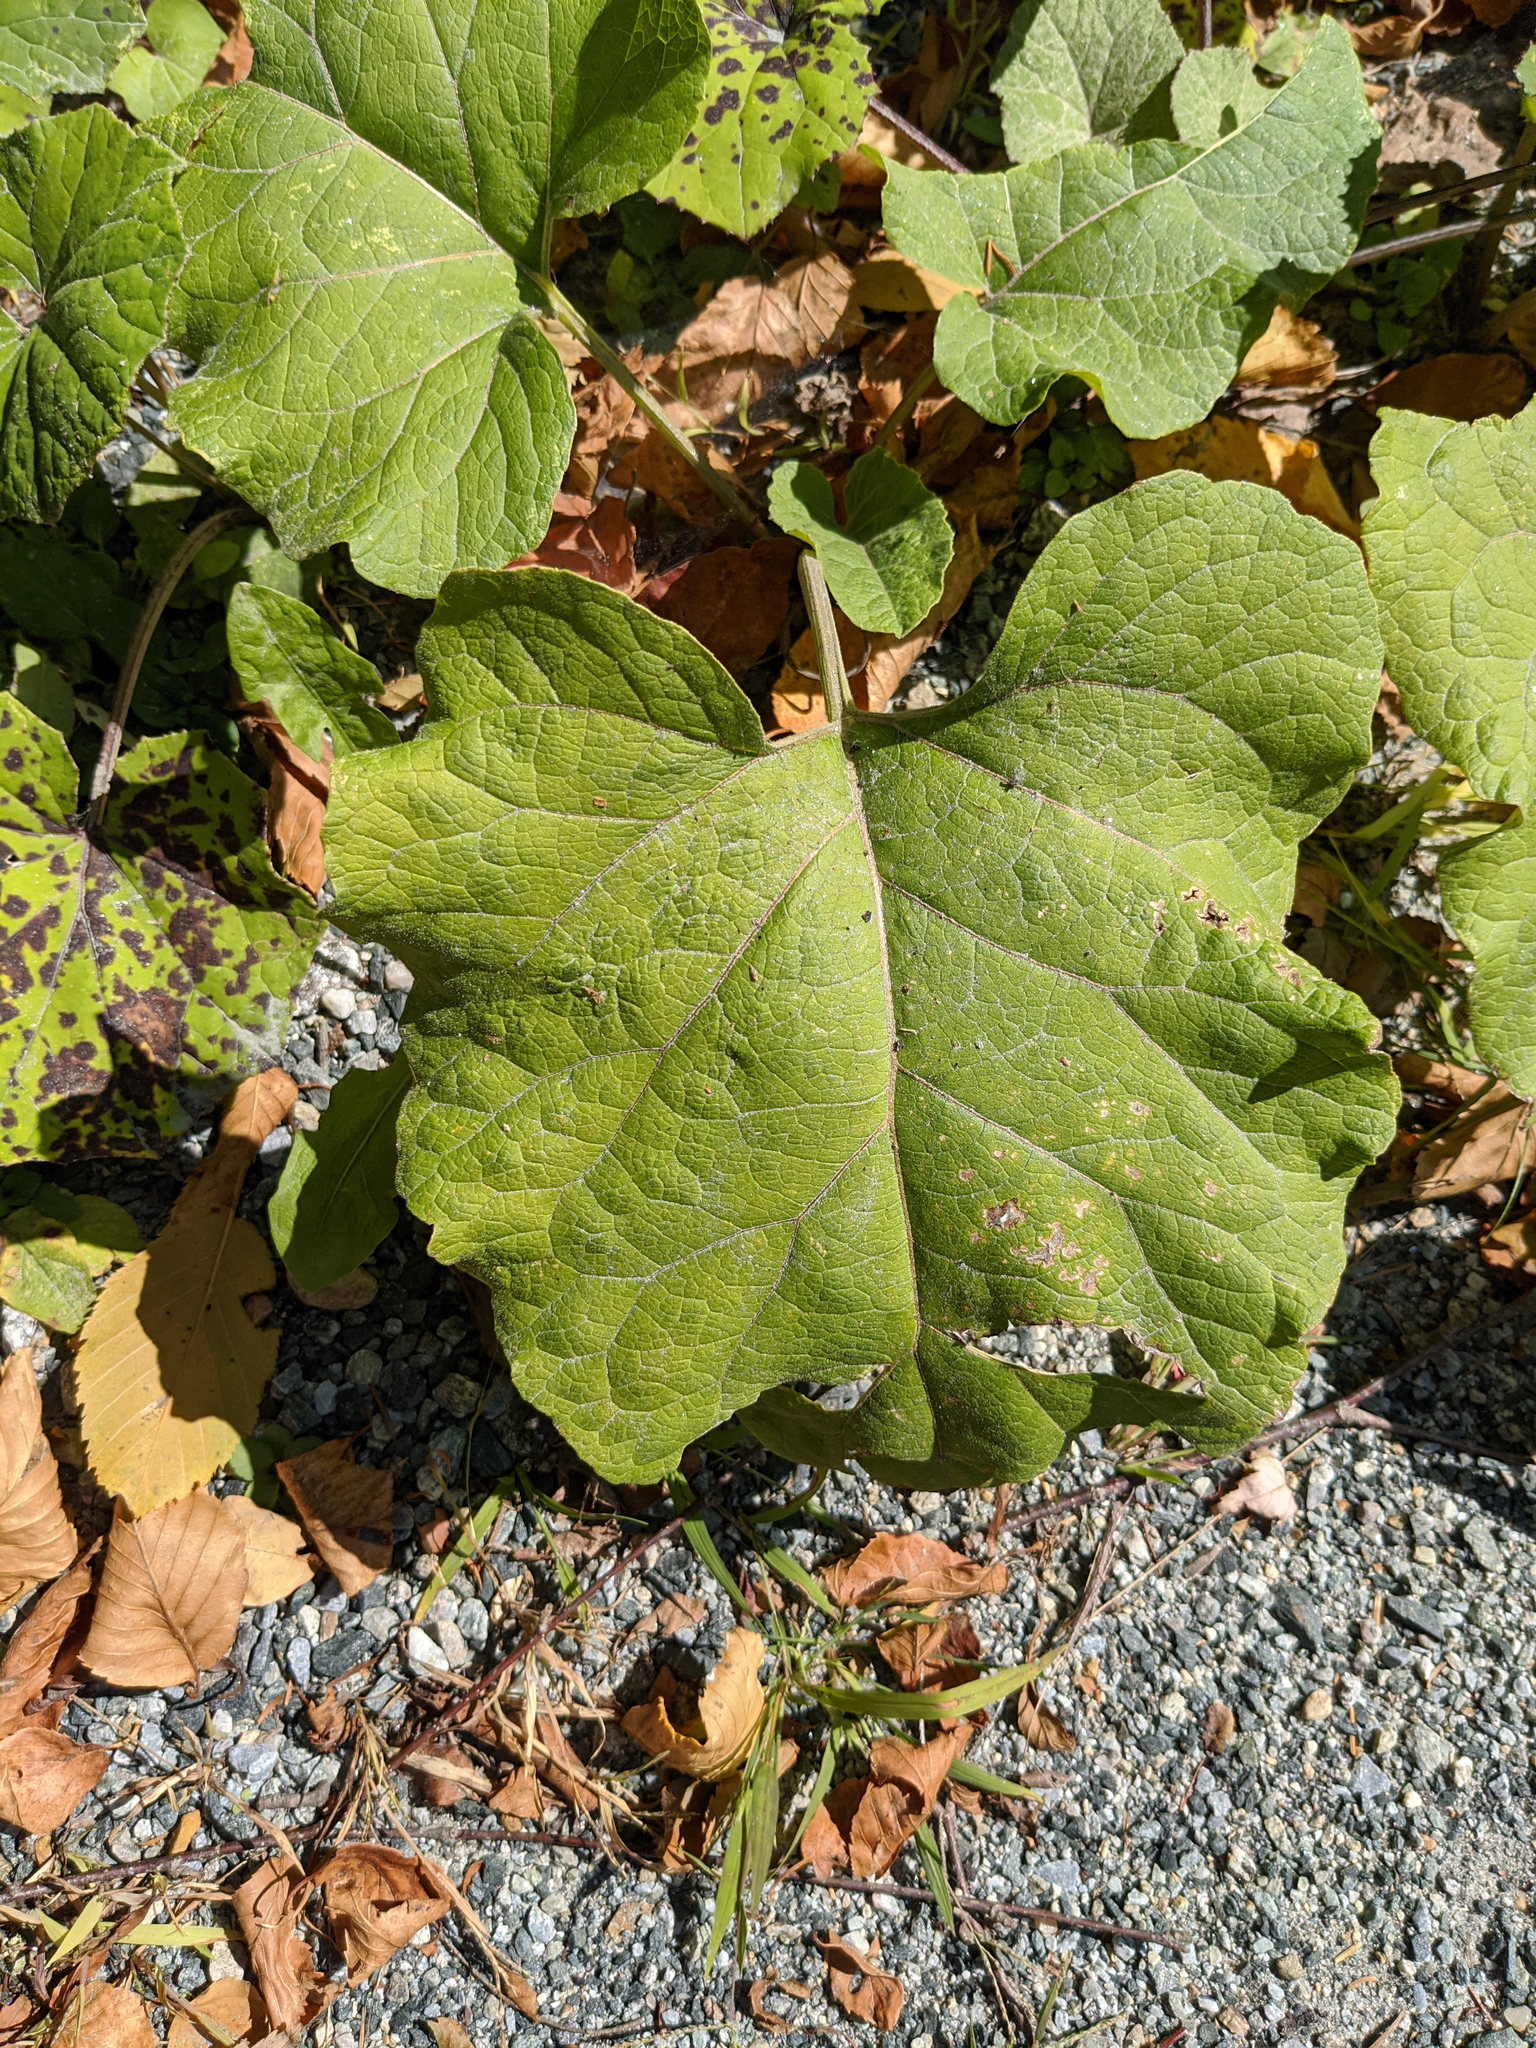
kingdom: Plantae
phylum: Tracheophyta
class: Magnoliopsida
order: Asterales
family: Asteraceae
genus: Arctium
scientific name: Arctium lappa
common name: Greater burdock
